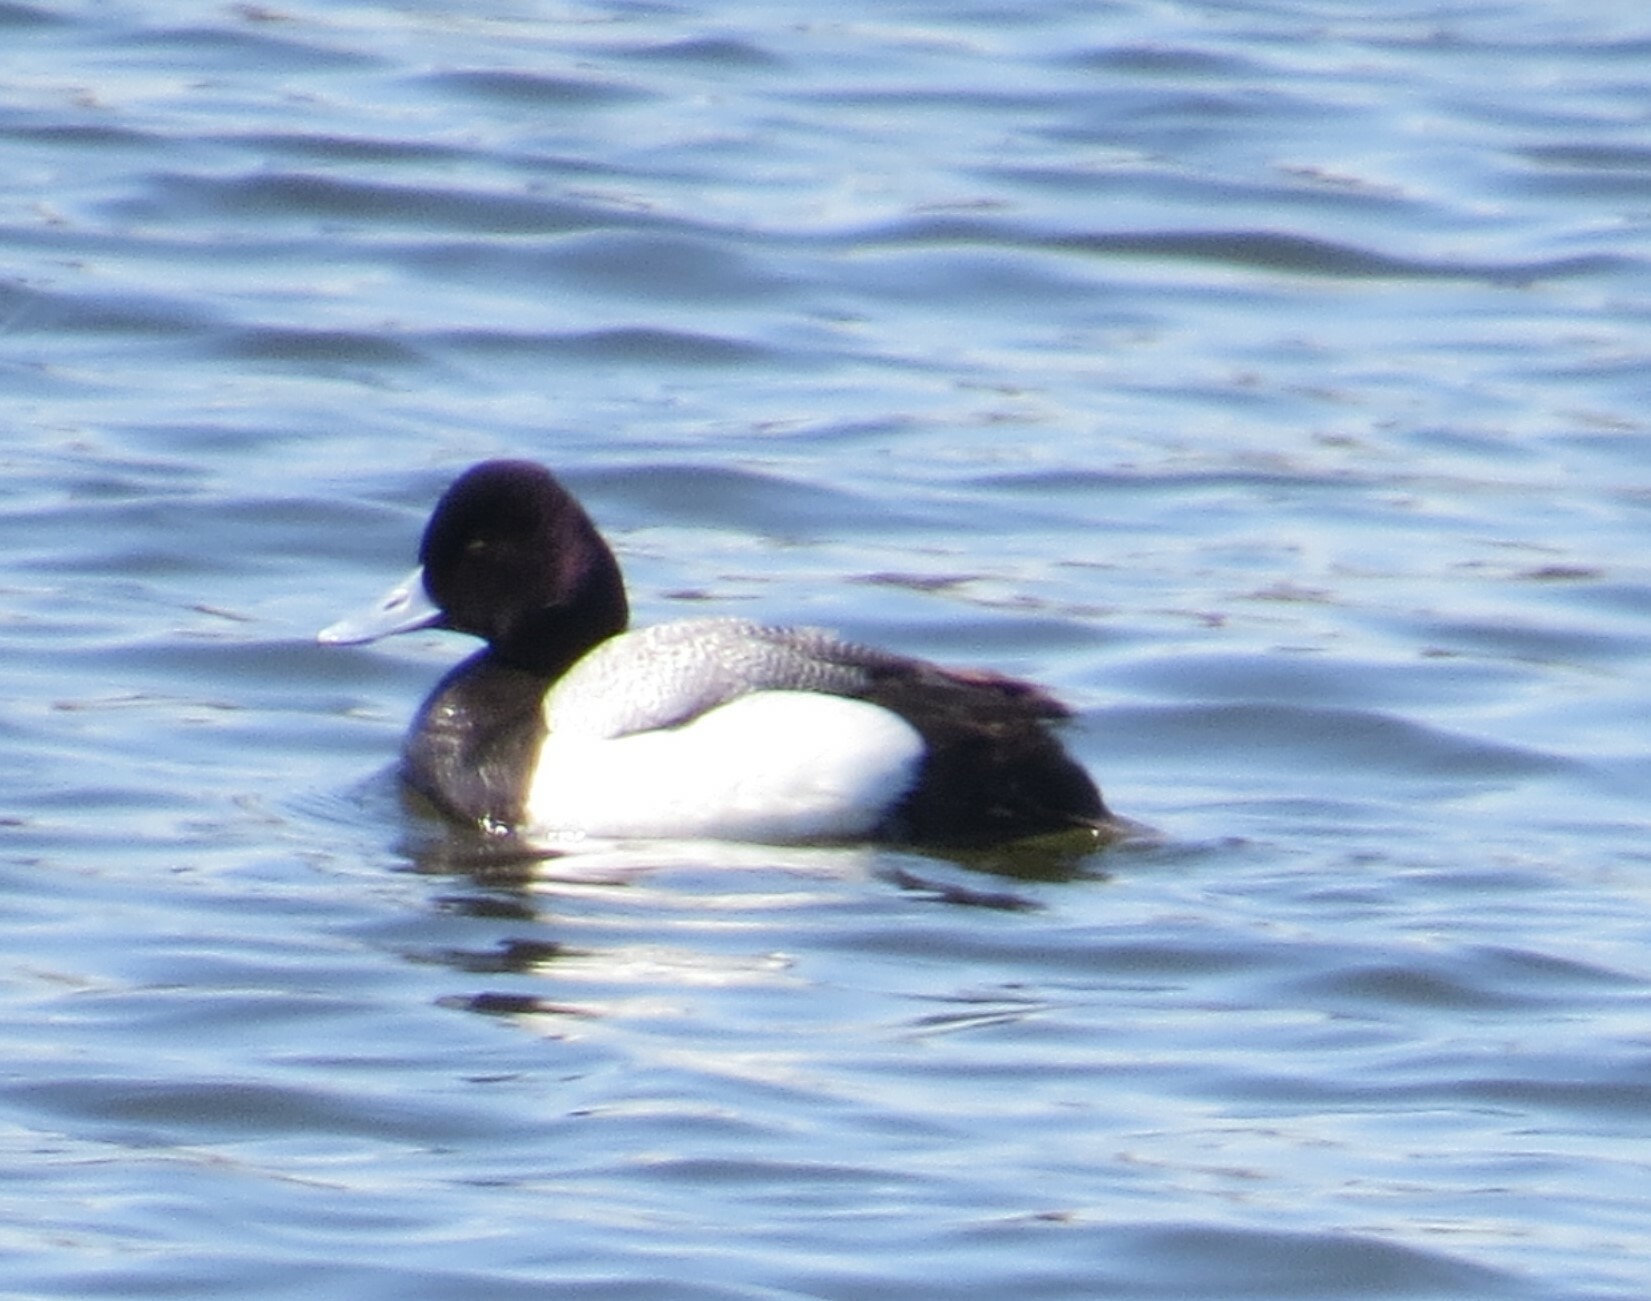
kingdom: Animalia
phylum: Chordata
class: Aves
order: Anseriformes
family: Anatidae
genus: Aythya
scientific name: Aythya affinis
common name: Lesser scaup
